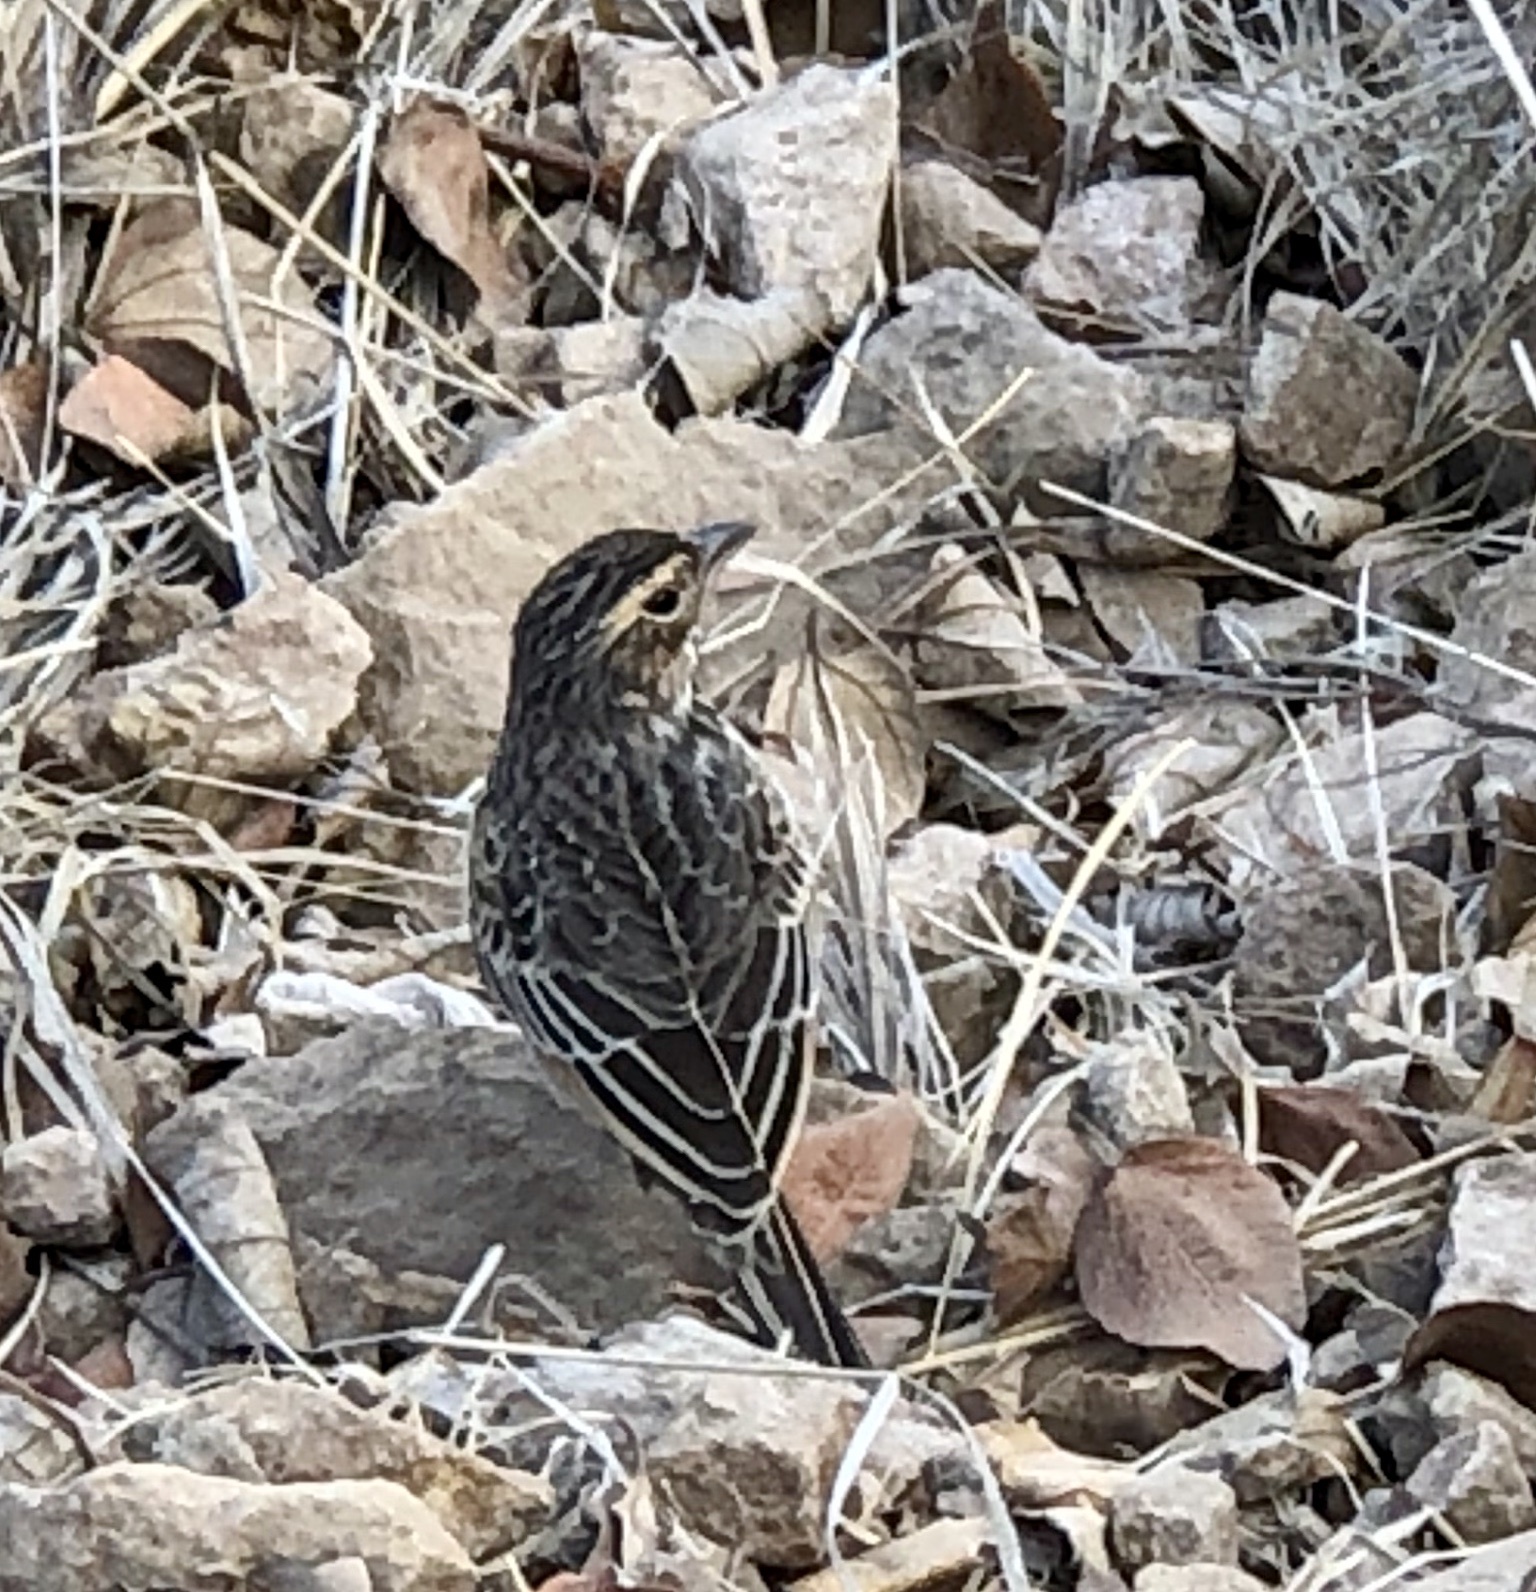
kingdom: Animalia
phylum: Chordata
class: Aves
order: Passeriformes
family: Alaudidae
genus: Mirafra
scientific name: Mirafra javanica
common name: Horsfield's bush lark
